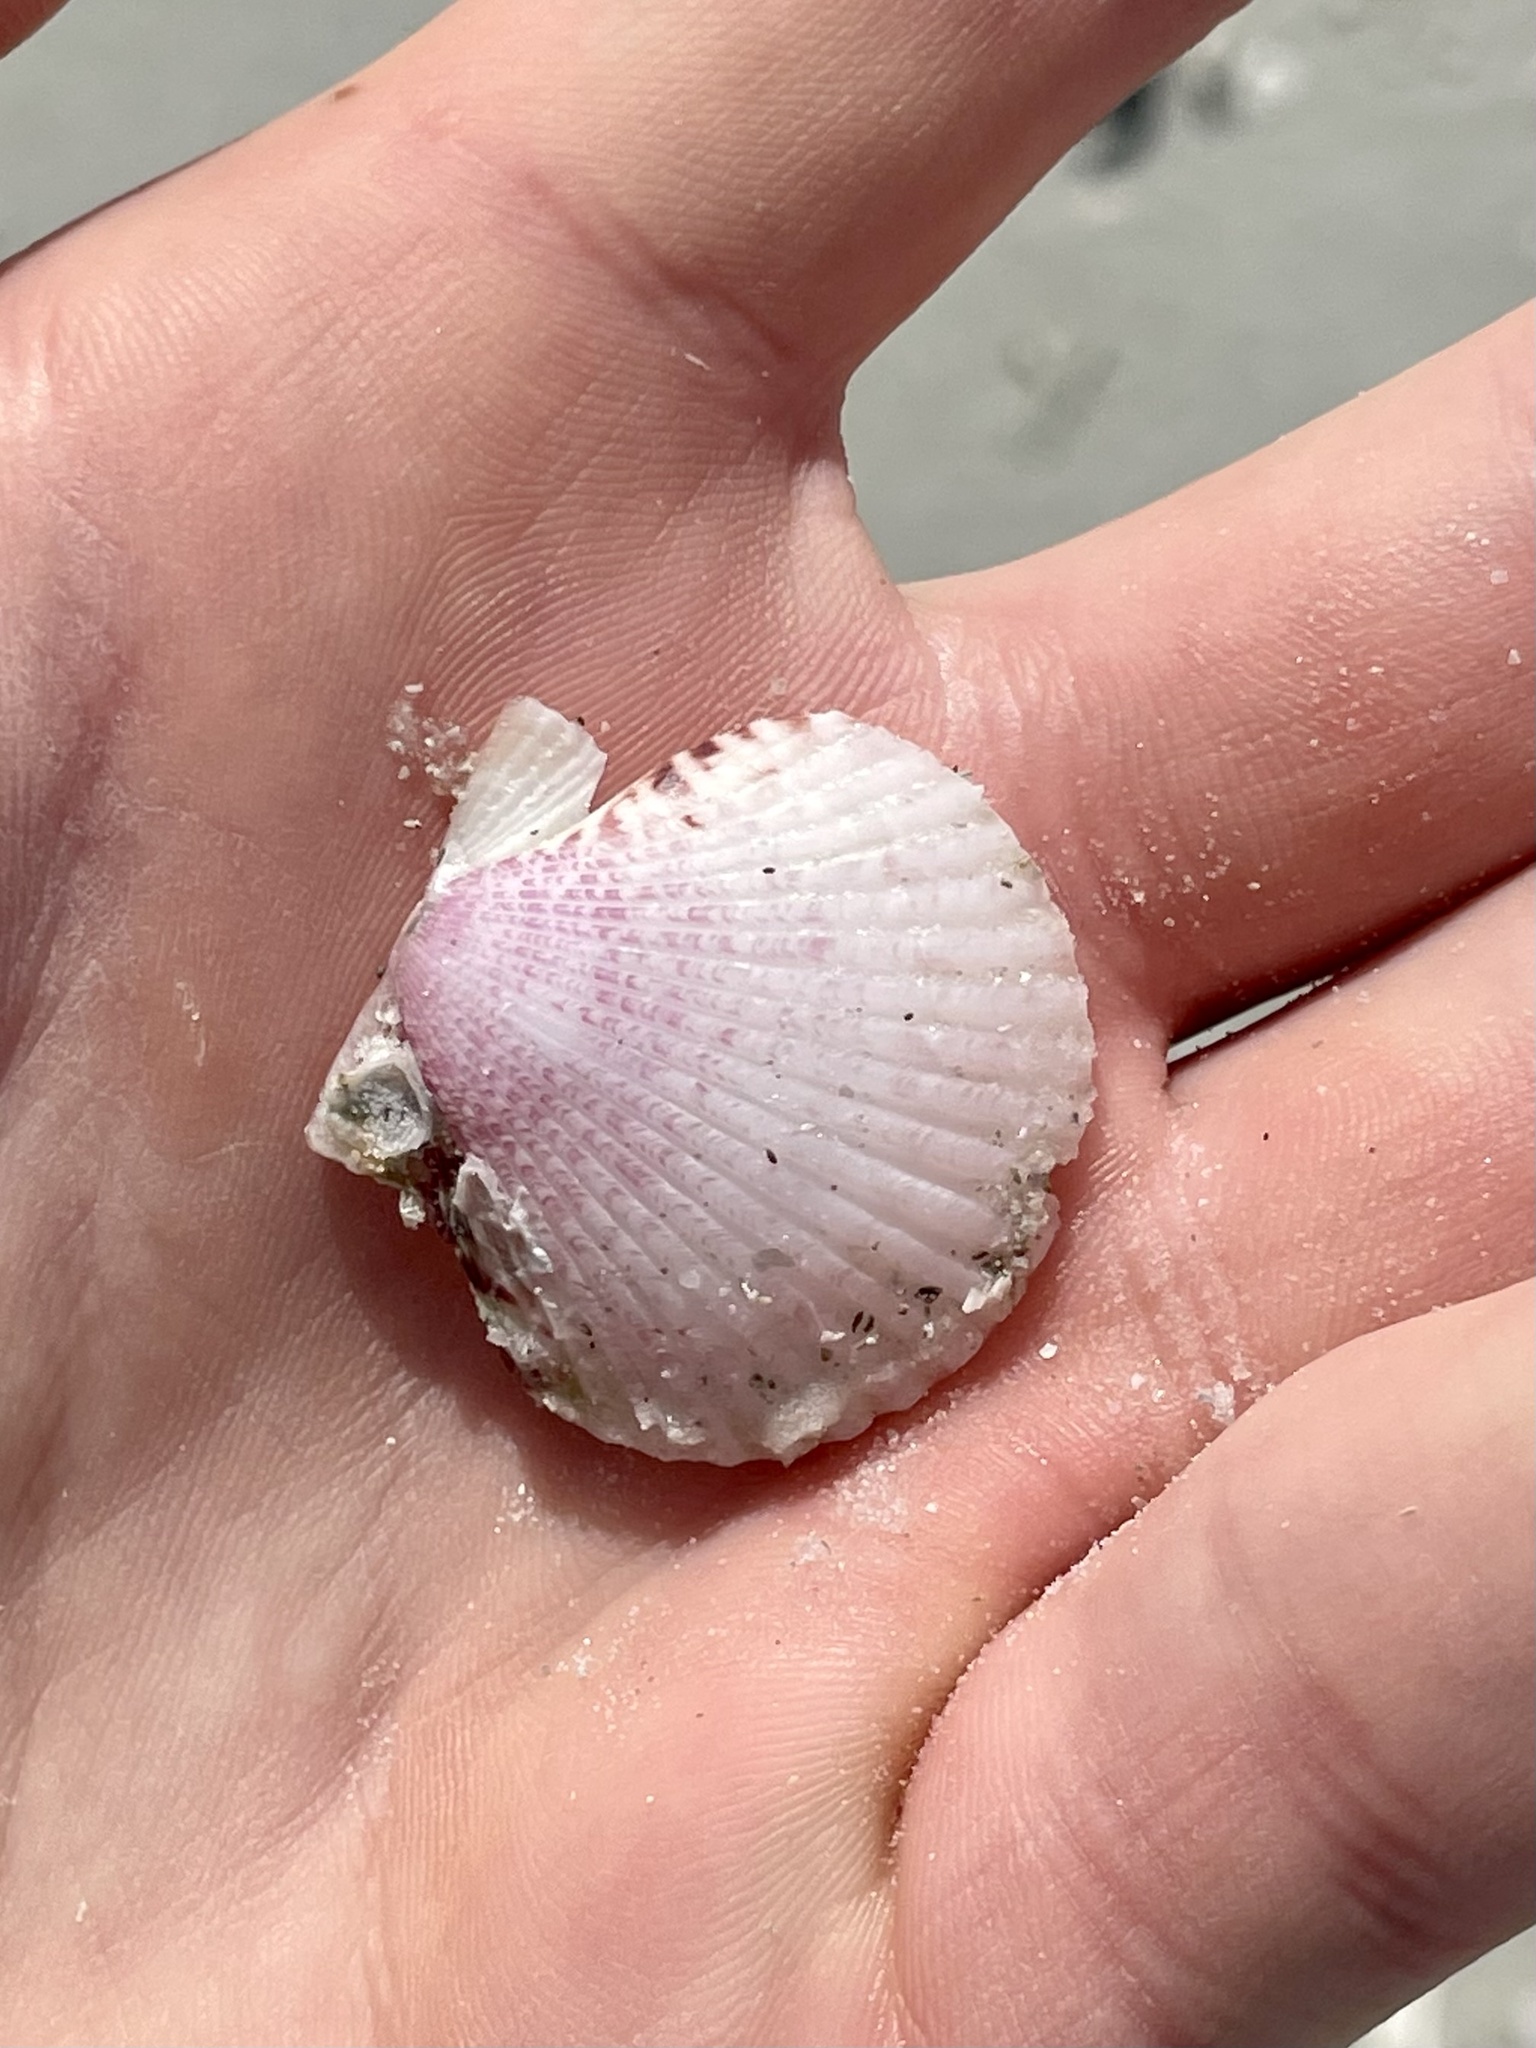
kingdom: Animalia
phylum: Mollusca
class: Bivalvia
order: Pectinida
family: Pectinidae
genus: Argopecten
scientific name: Argopecten gibbus
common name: Atlantic calico scallop
